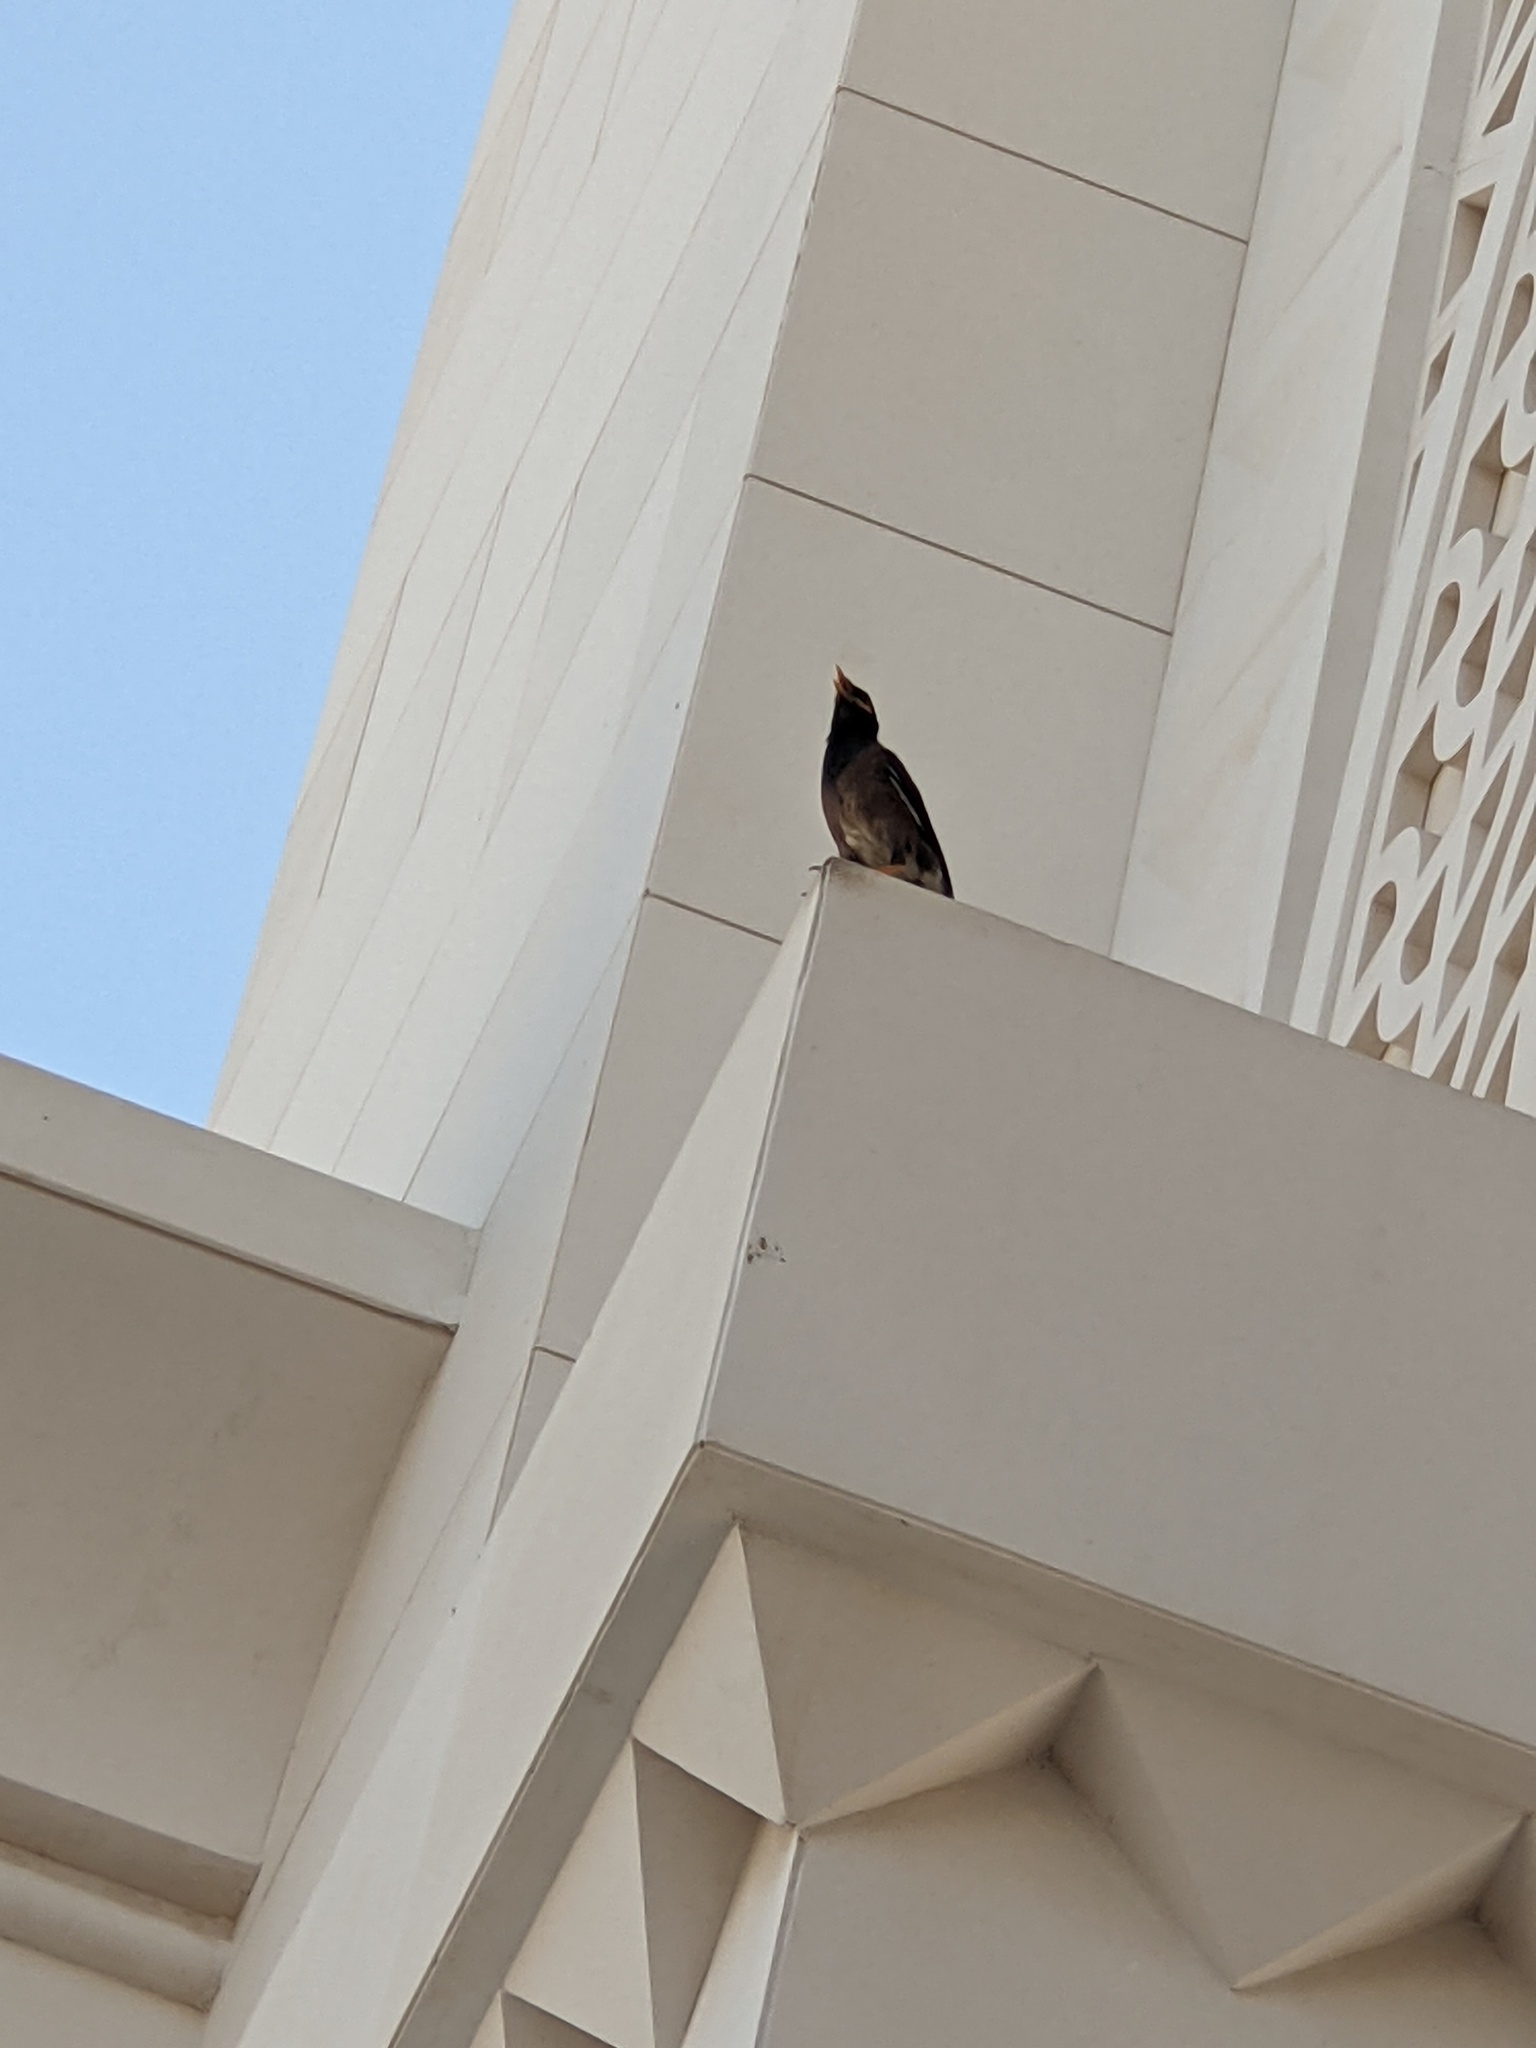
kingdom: Animalia
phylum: Chordata
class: Aves
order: Passeriformes
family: Sturnidae
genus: Acridotheres
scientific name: Acridotheres tristis
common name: Common myna
